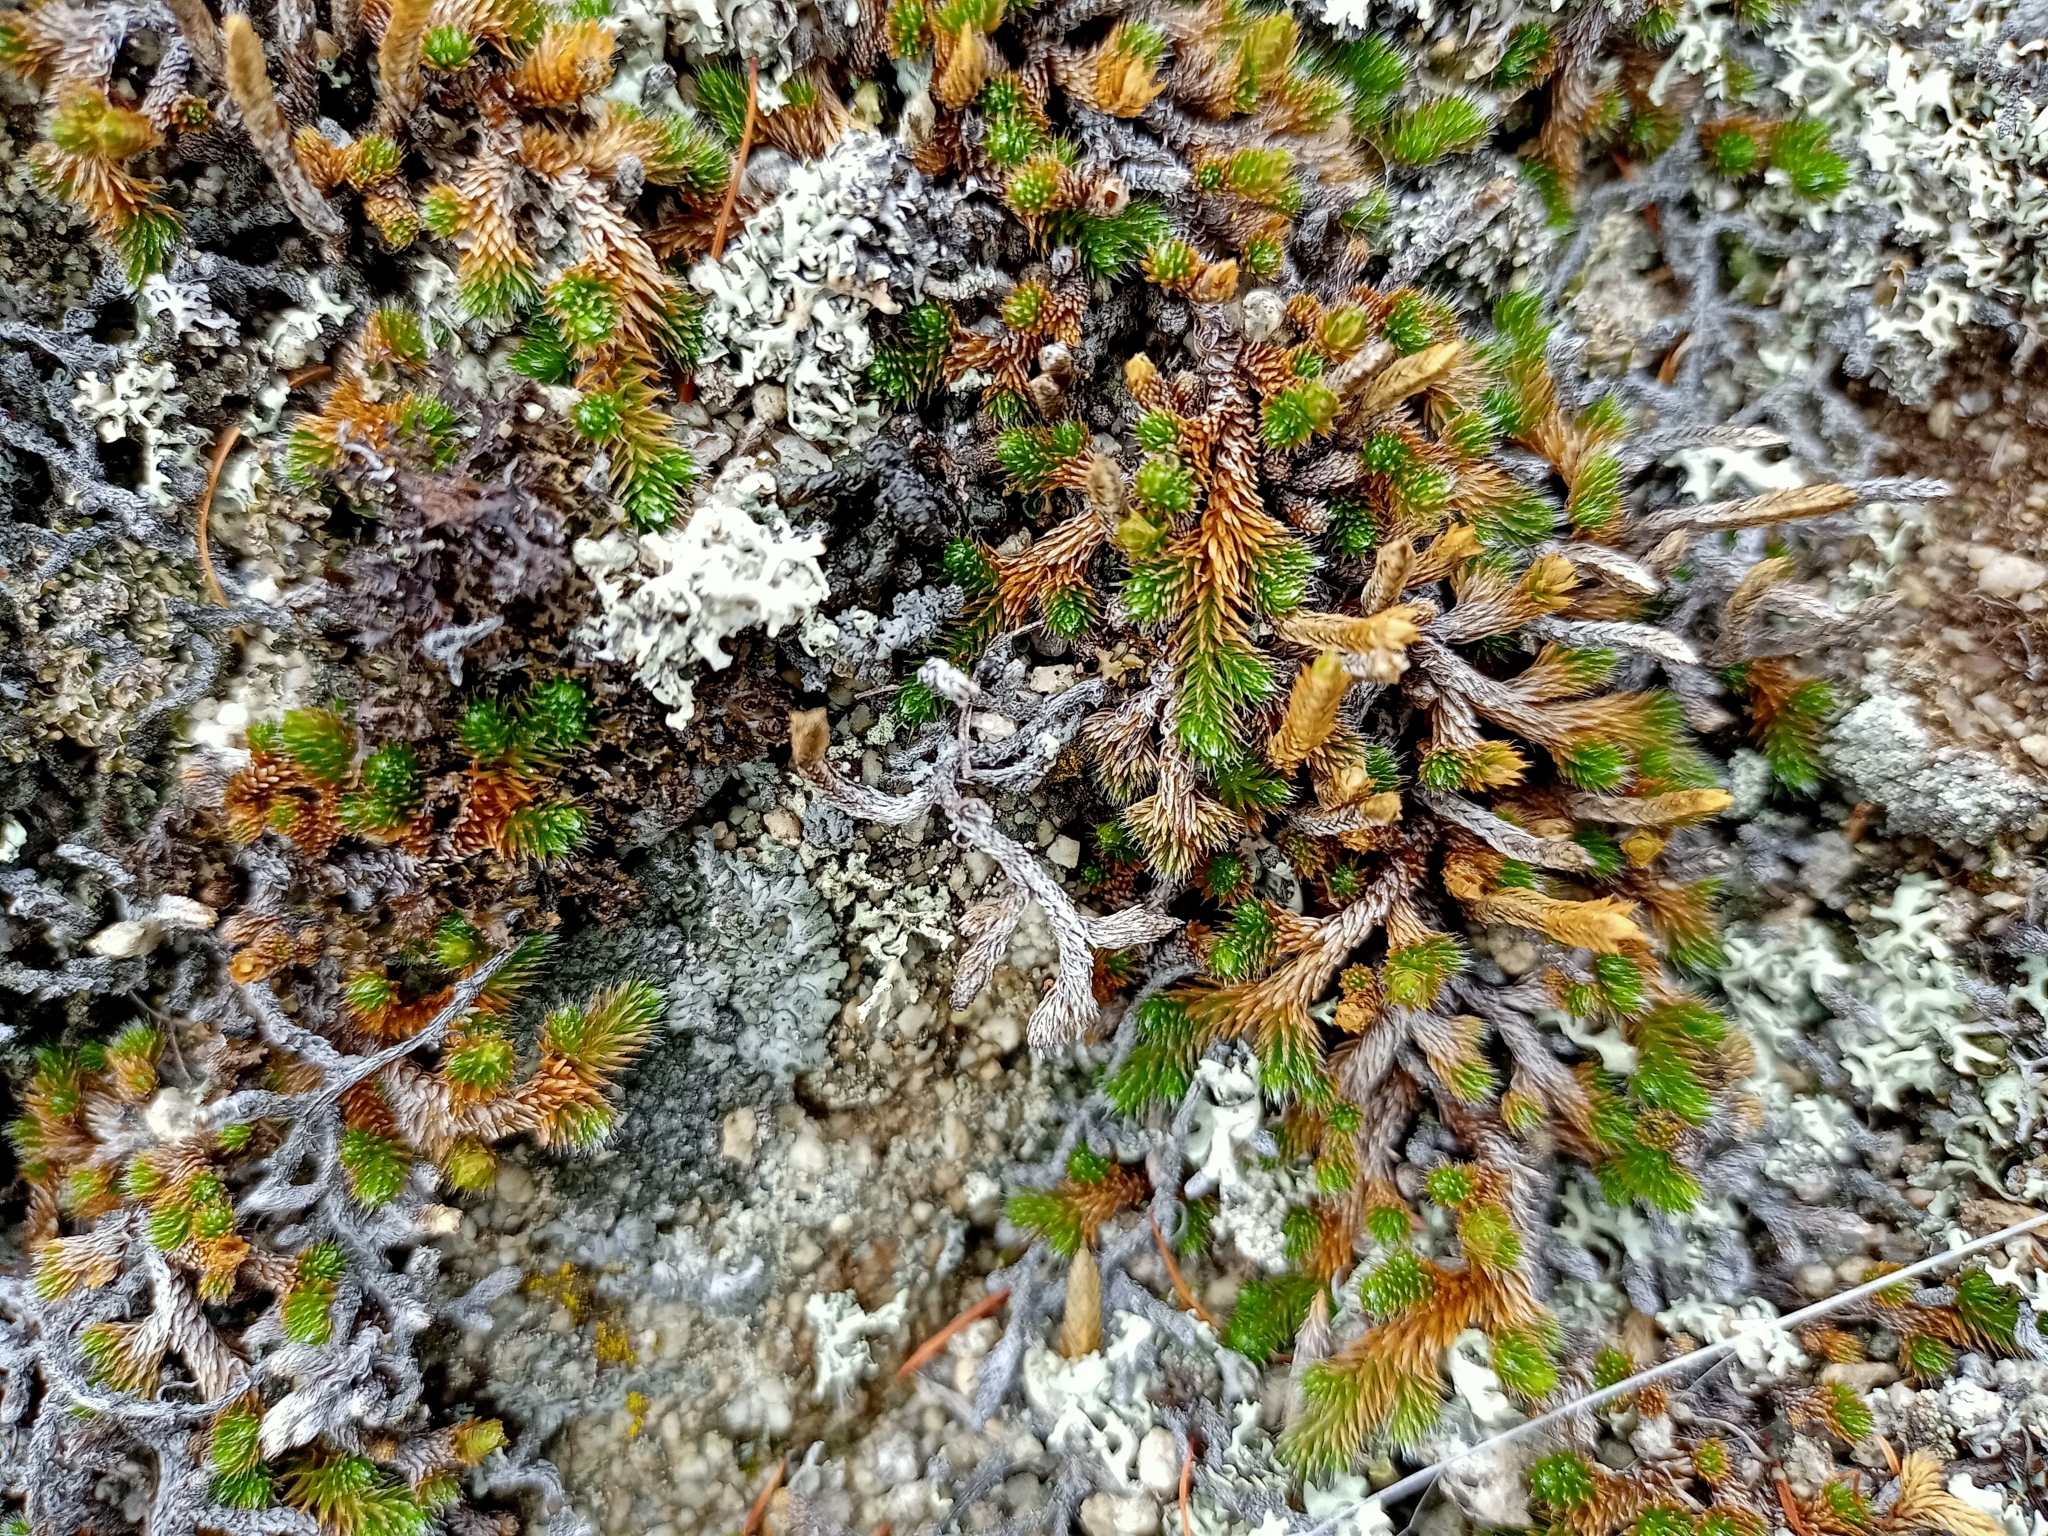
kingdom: Plantae
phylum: Tracheophyta
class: Lycopodiopsida
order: Selaginellales
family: Selaginellaceae
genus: Selaginella
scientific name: Selaginella rupestris
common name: Dwarf spikemoss
